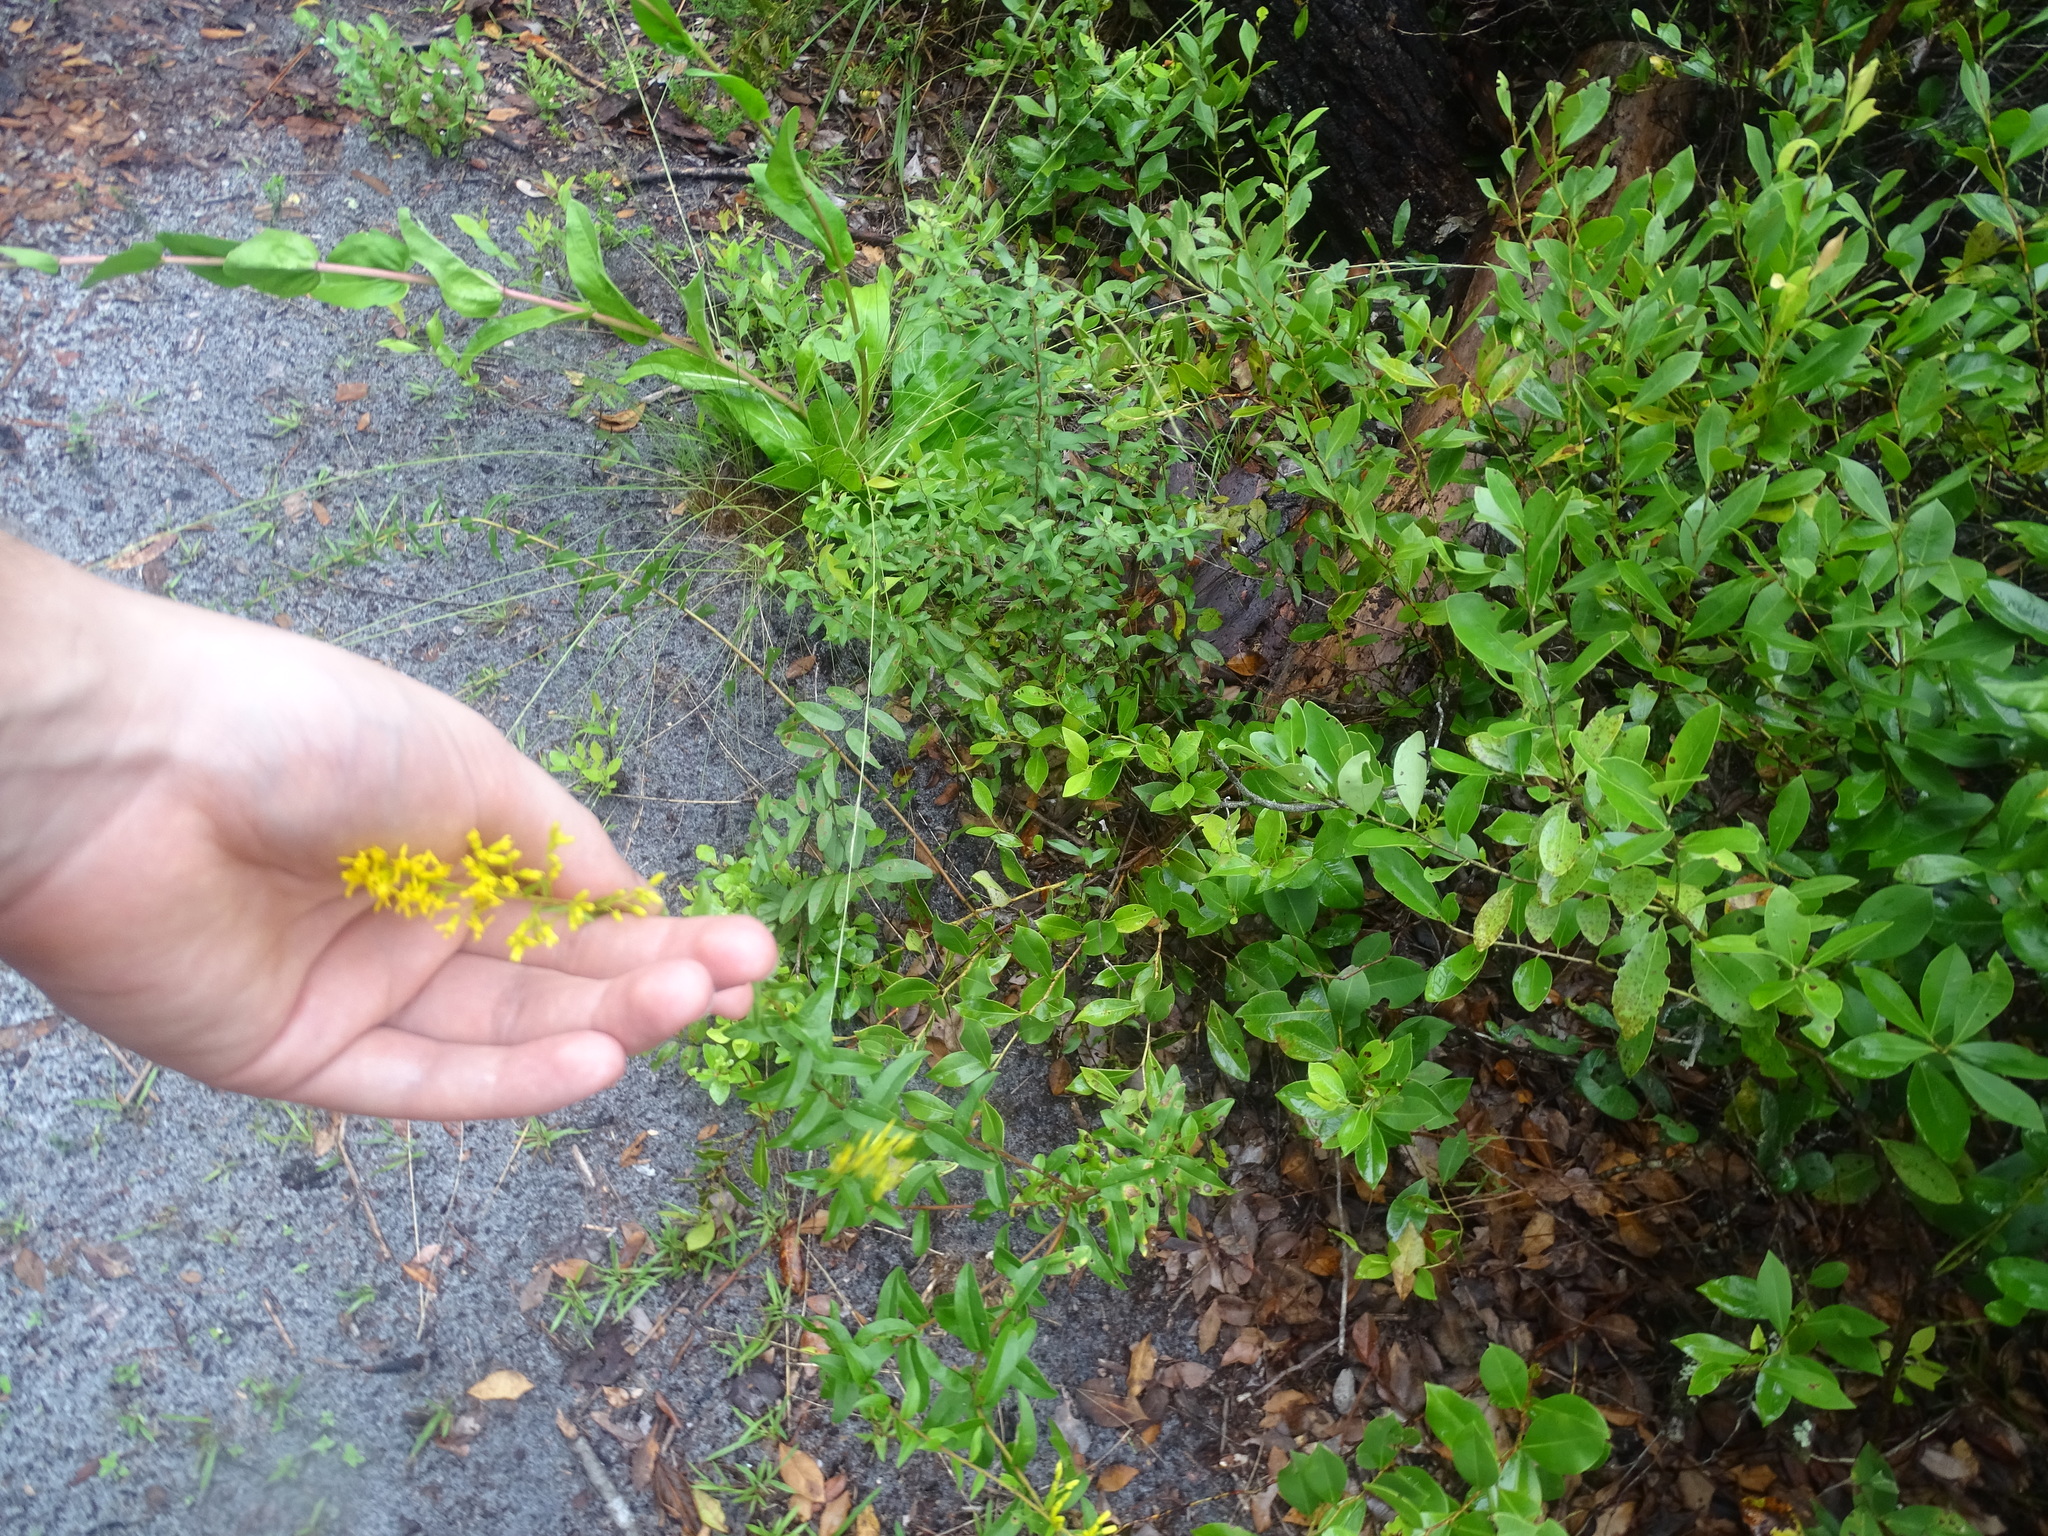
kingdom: Plantae
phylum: Tracheophyta
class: Magnoliopsida
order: Asterales
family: Asteraceae
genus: Solidago
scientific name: Solidago odora
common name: Anise-scented goldenrod
